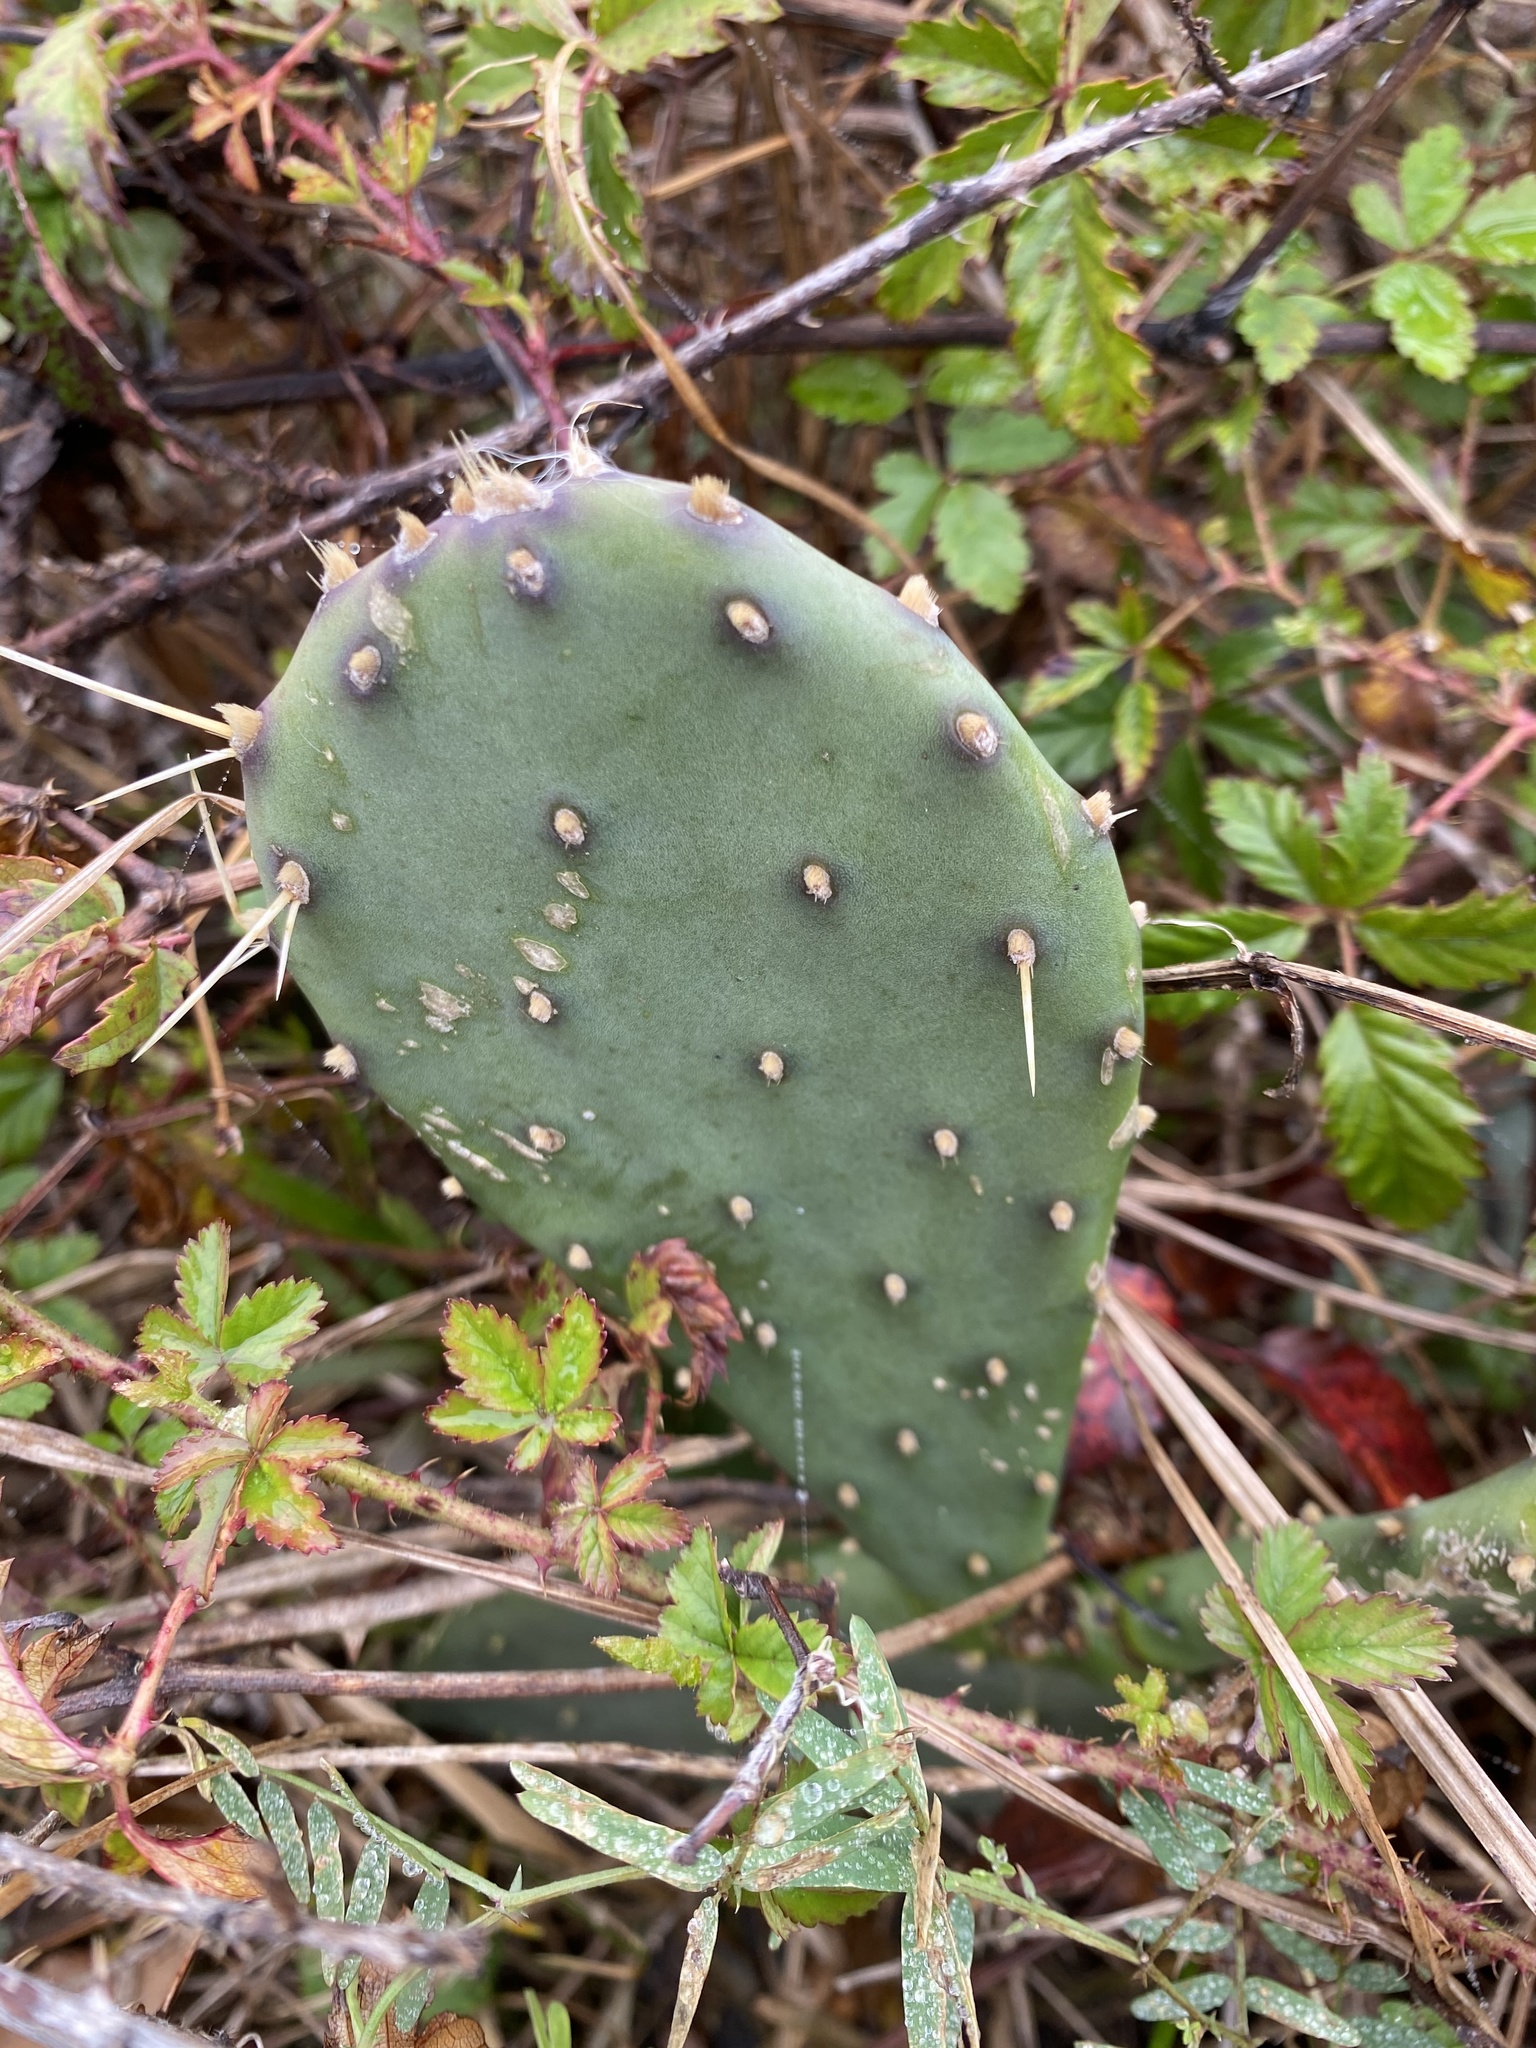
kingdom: Plantae
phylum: Tracheophyta
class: Magnoliopsida
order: Caryophyllales
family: Cactaceae
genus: Opuntia
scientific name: Opuntia anahuacensis
